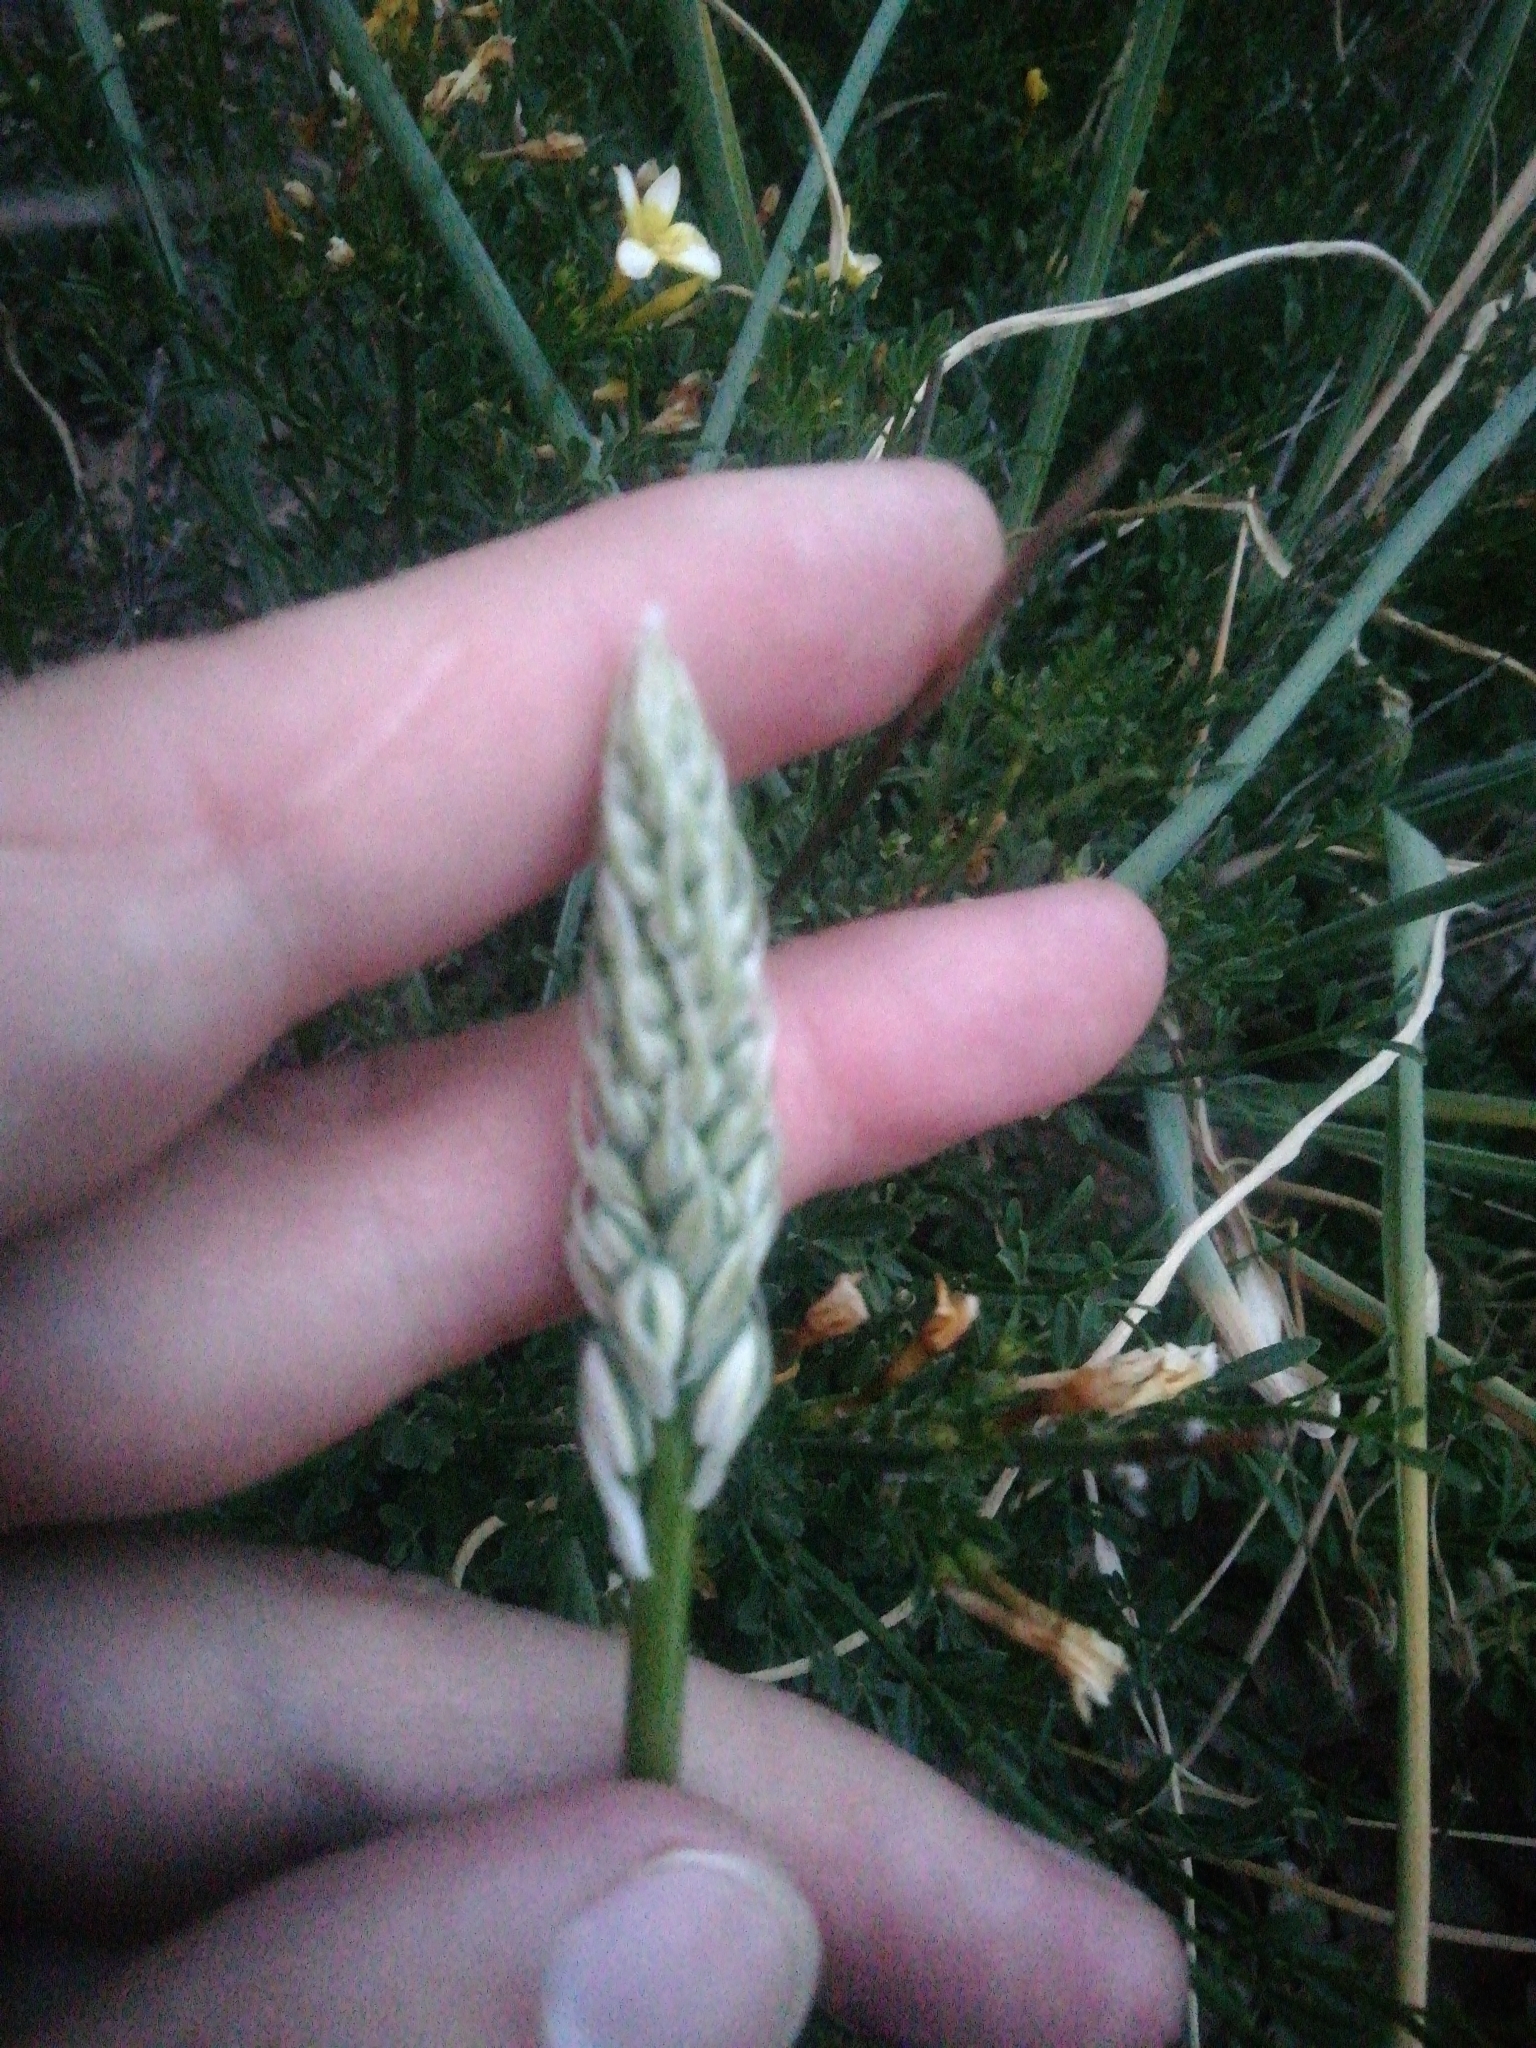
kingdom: Plantae
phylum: Tracheophyta
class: Liliopsida
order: Asparagales
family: Asparagaceae
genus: Ornithogalum
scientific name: Ornithogalum ponticum
